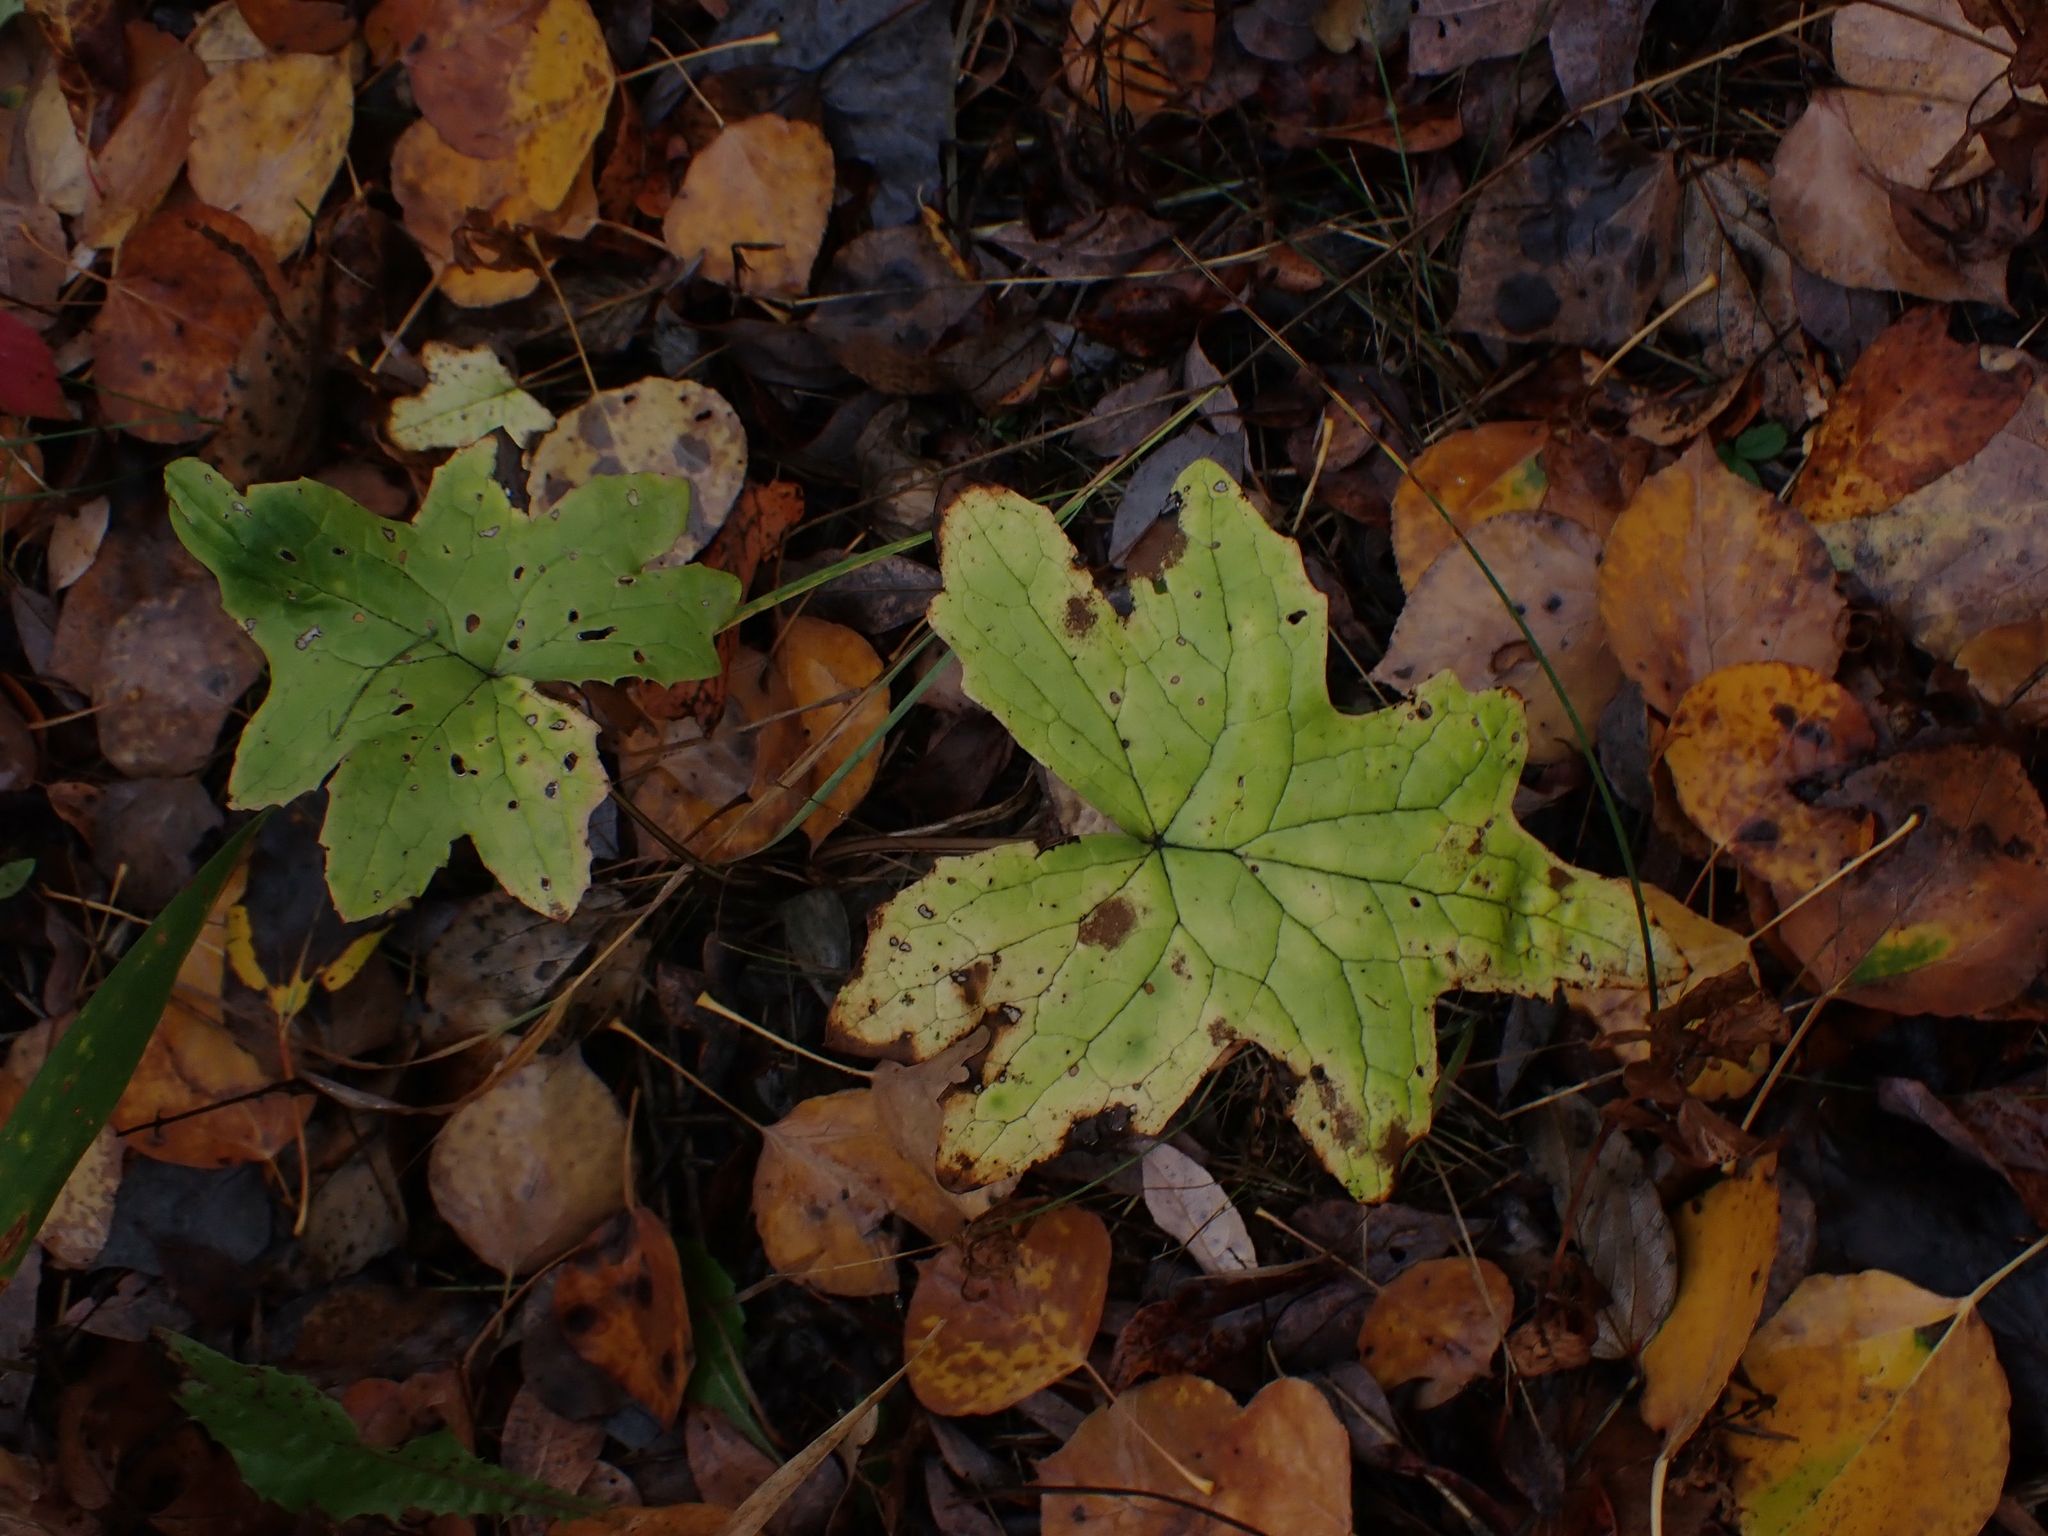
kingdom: Plantae
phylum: Tracheophyta
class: Magnoliopsida
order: Asterales
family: Asteraceae
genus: Petasites
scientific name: Petasites frigidus
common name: Arctic butterbur
